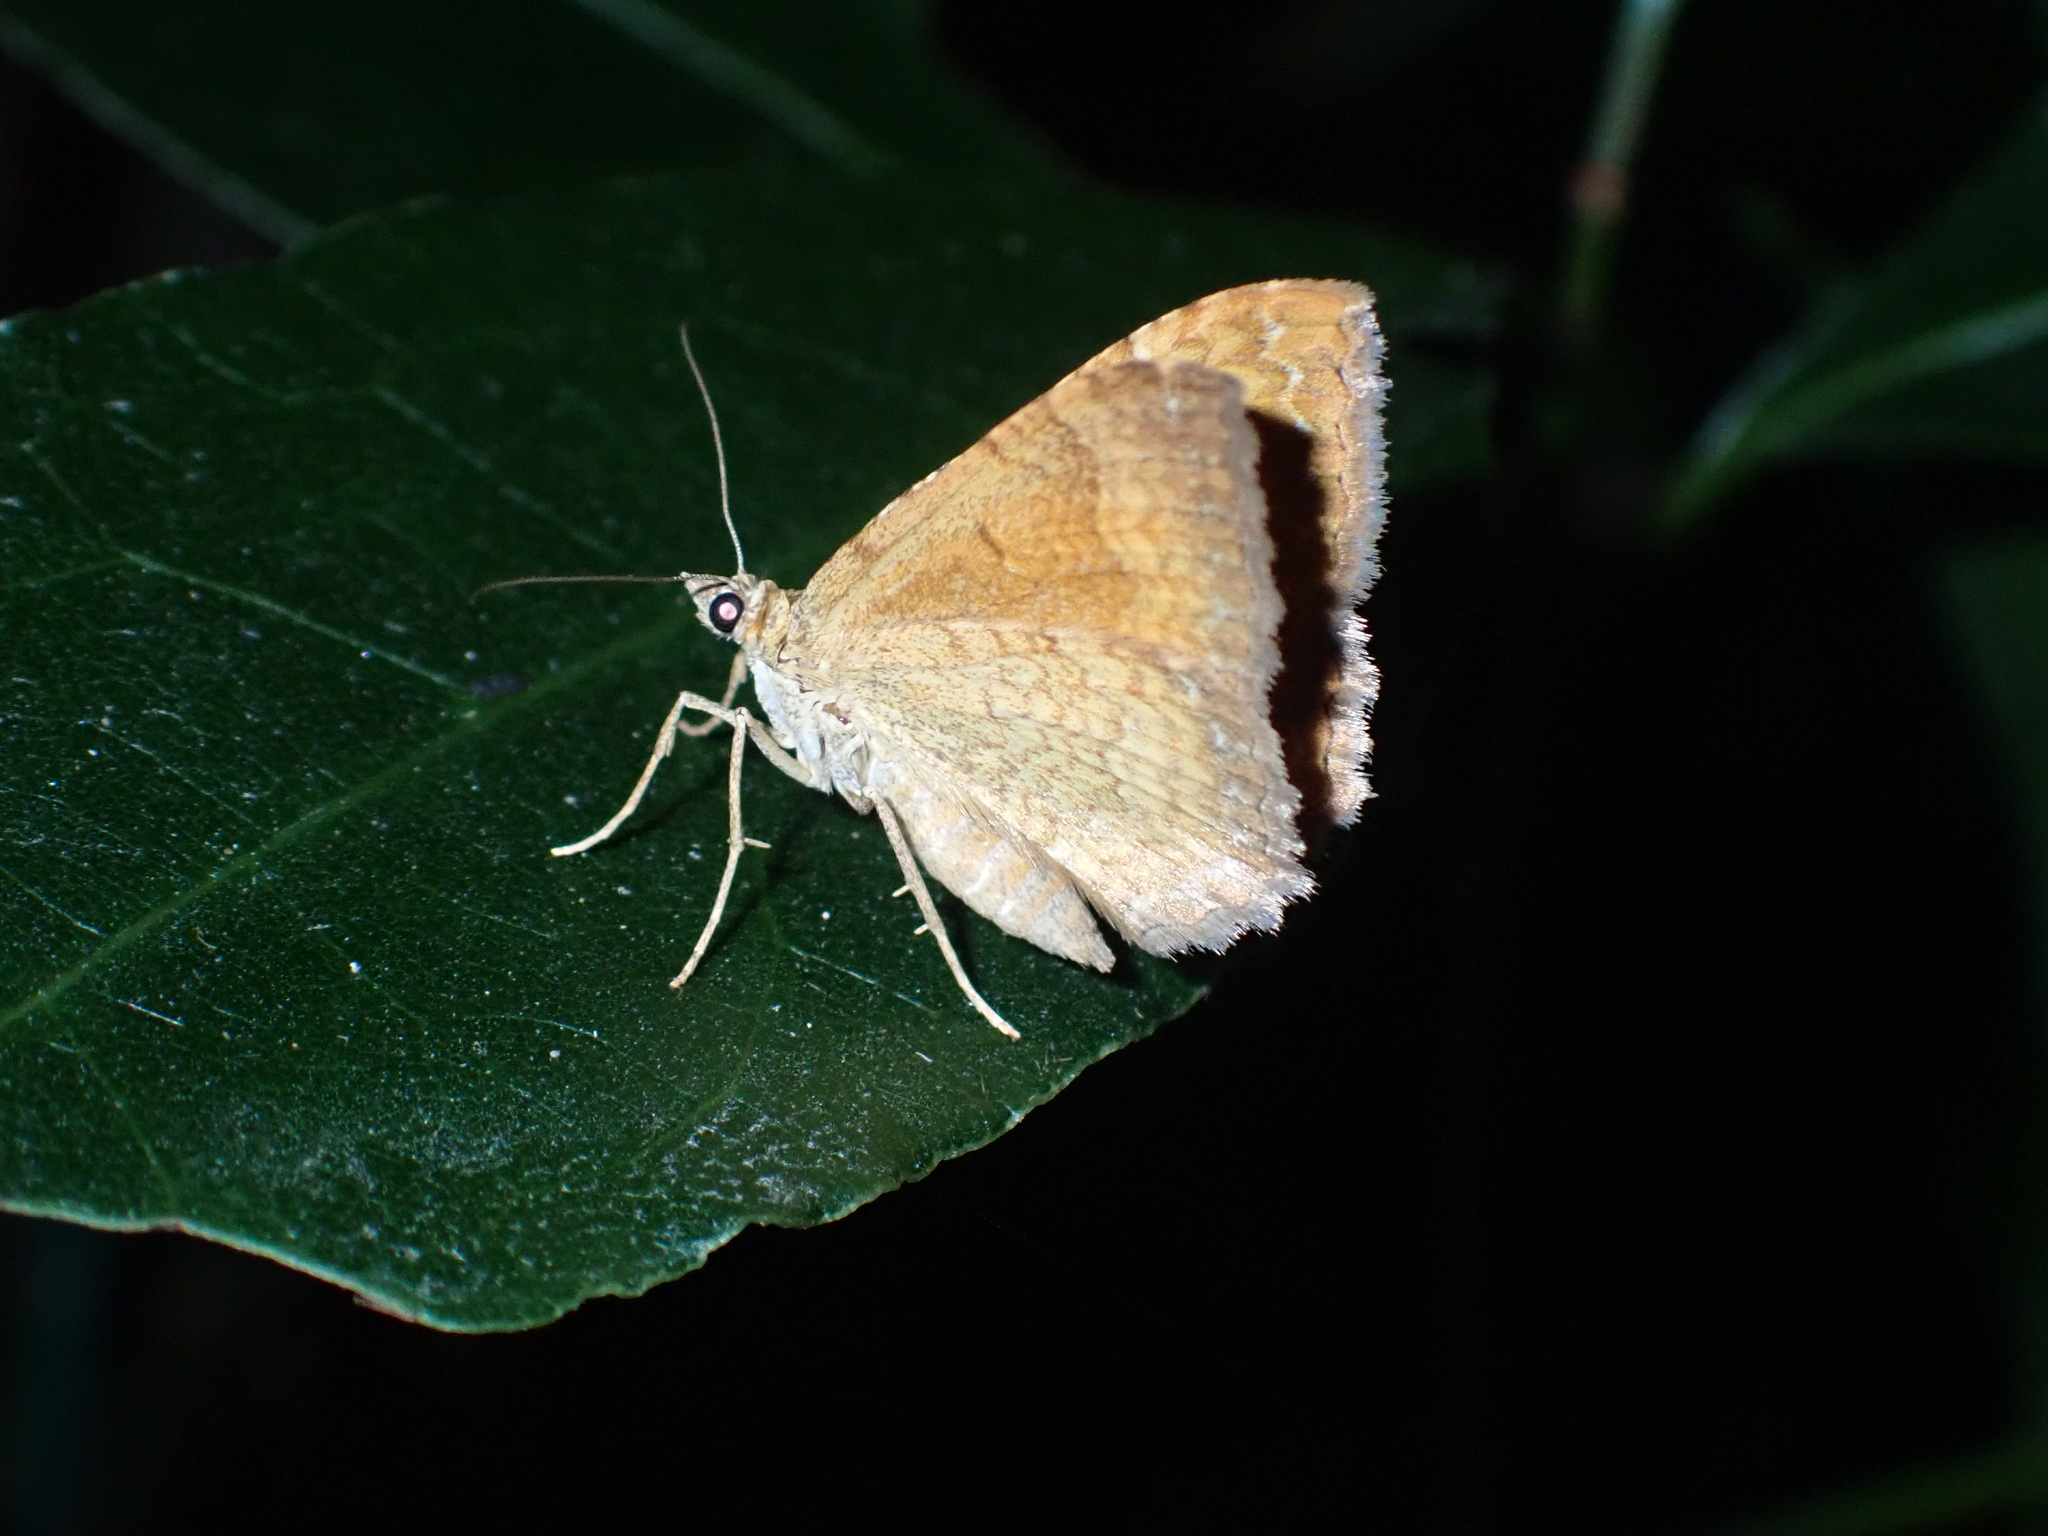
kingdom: Animalia
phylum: Arthropoda
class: Insecta
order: Lepidoptera
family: Geometridae
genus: Camptogramma
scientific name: Camptogramma bilineata
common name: Yellow shell
